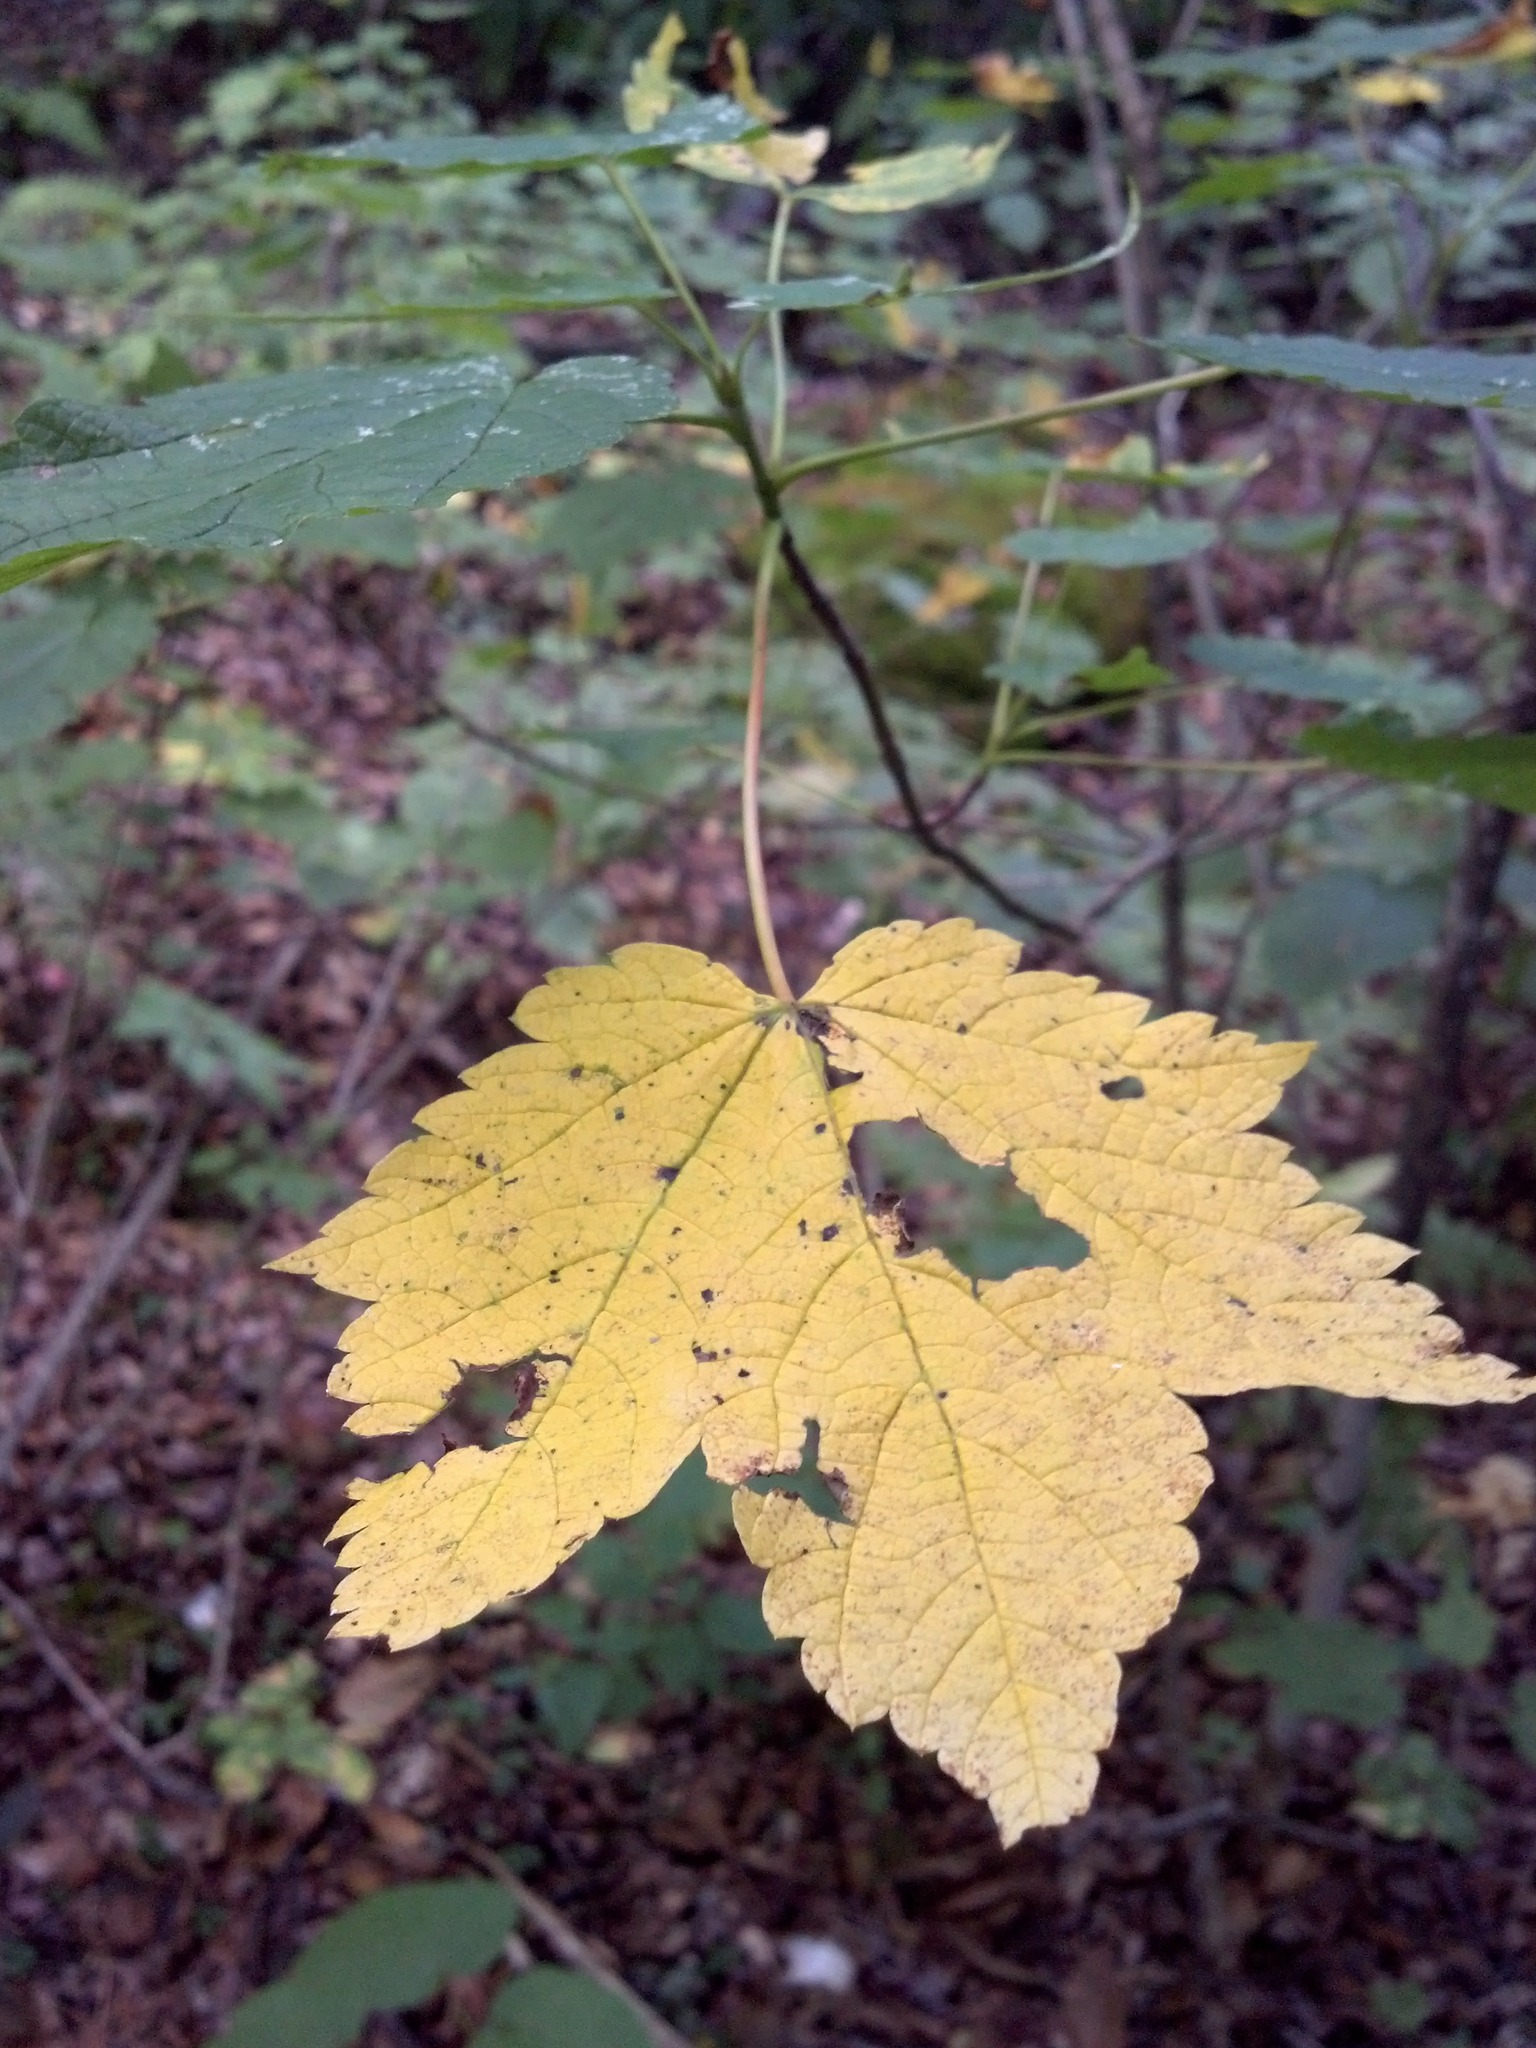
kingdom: Plantae
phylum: Tracheophyta
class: Magnoliopsida
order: Sapindales
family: Sapindaceae
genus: Acer
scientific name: Acer spicatum
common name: Mountain maple
